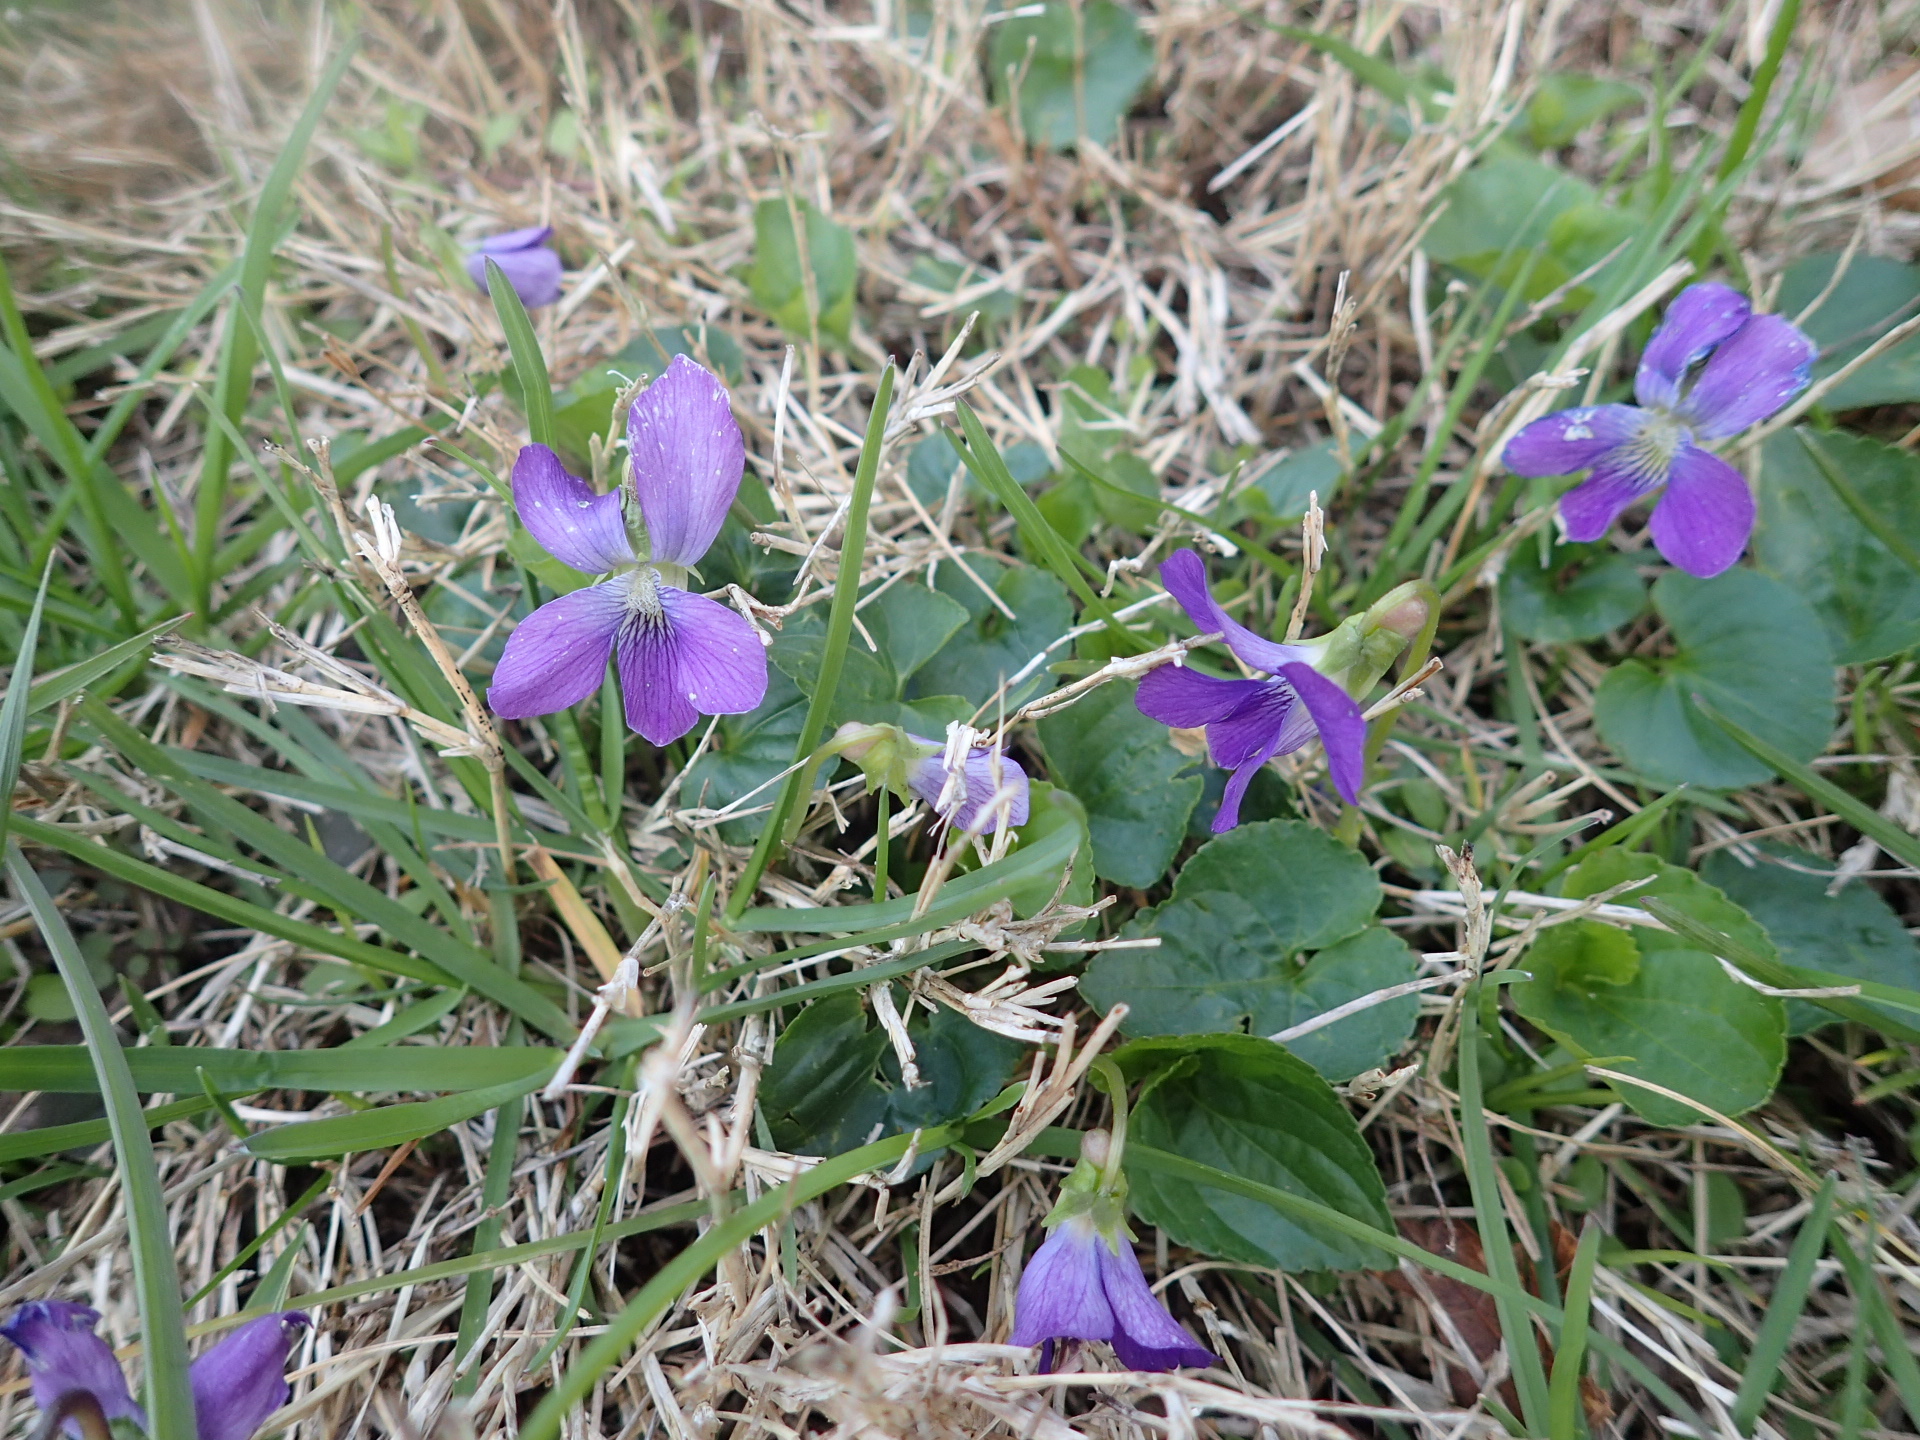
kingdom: Plantae
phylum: Tracheophyta
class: Magnoliopsida
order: Malpighiales
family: Violaceae
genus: Viola
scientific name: Viola sororia
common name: Dooryard violet
